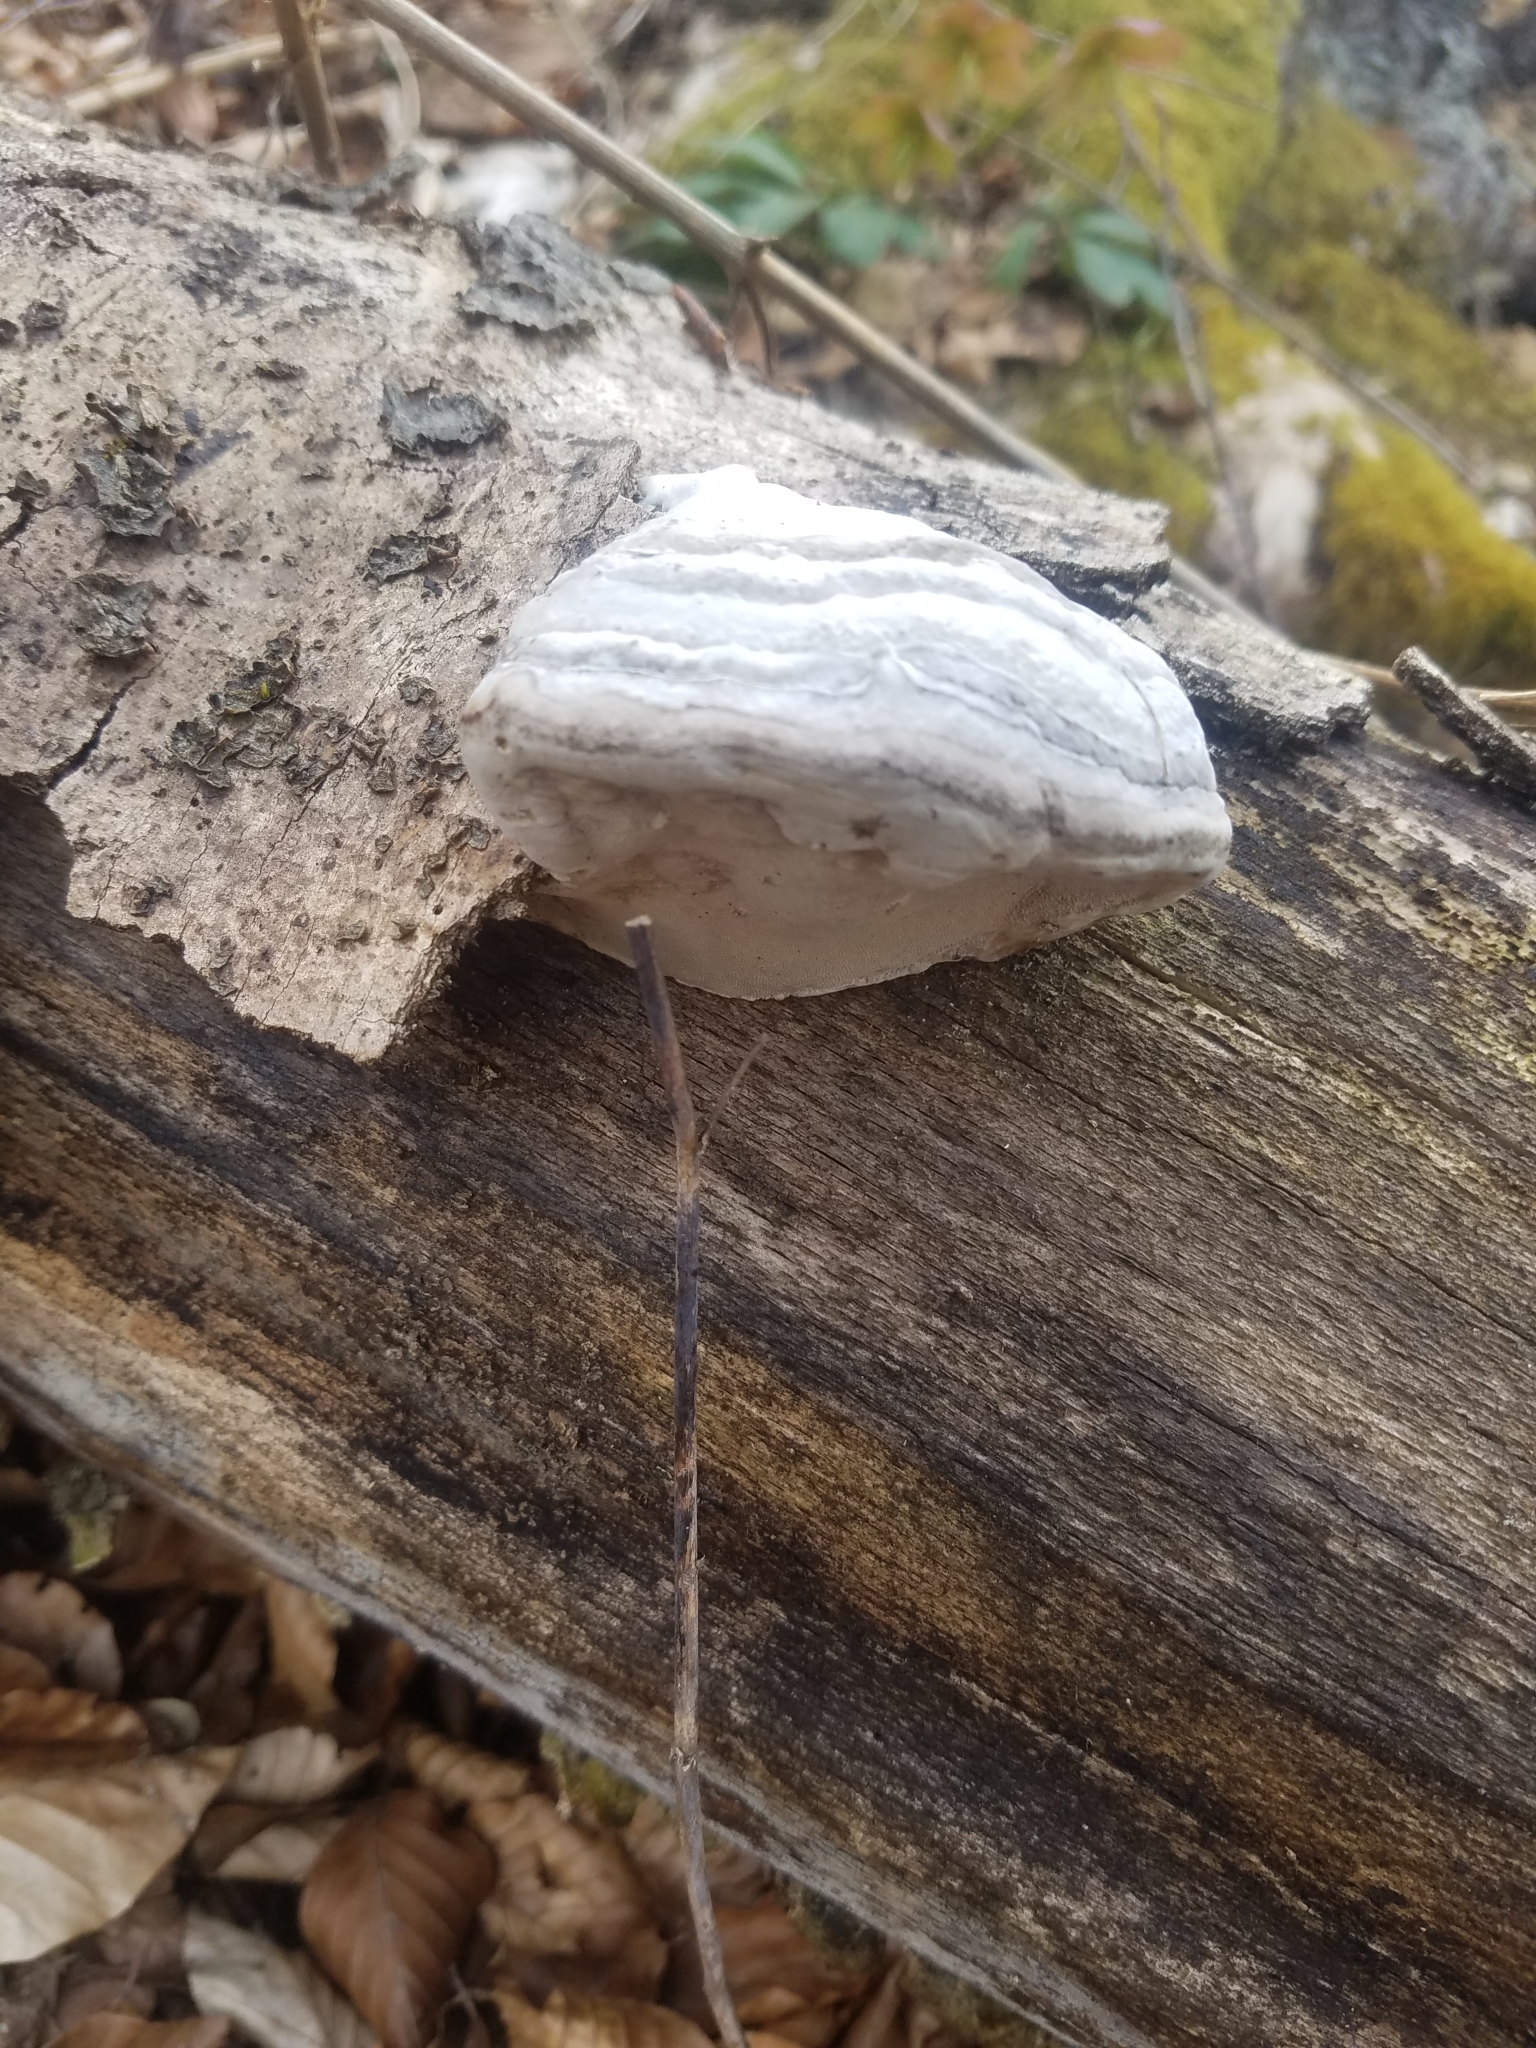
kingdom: Fungi
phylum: Basidiomycota
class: Agaricomycetes
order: Polyporales
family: Polyporaceae
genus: Fomes
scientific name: Fomes fomentarius
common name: Hoof fungus
